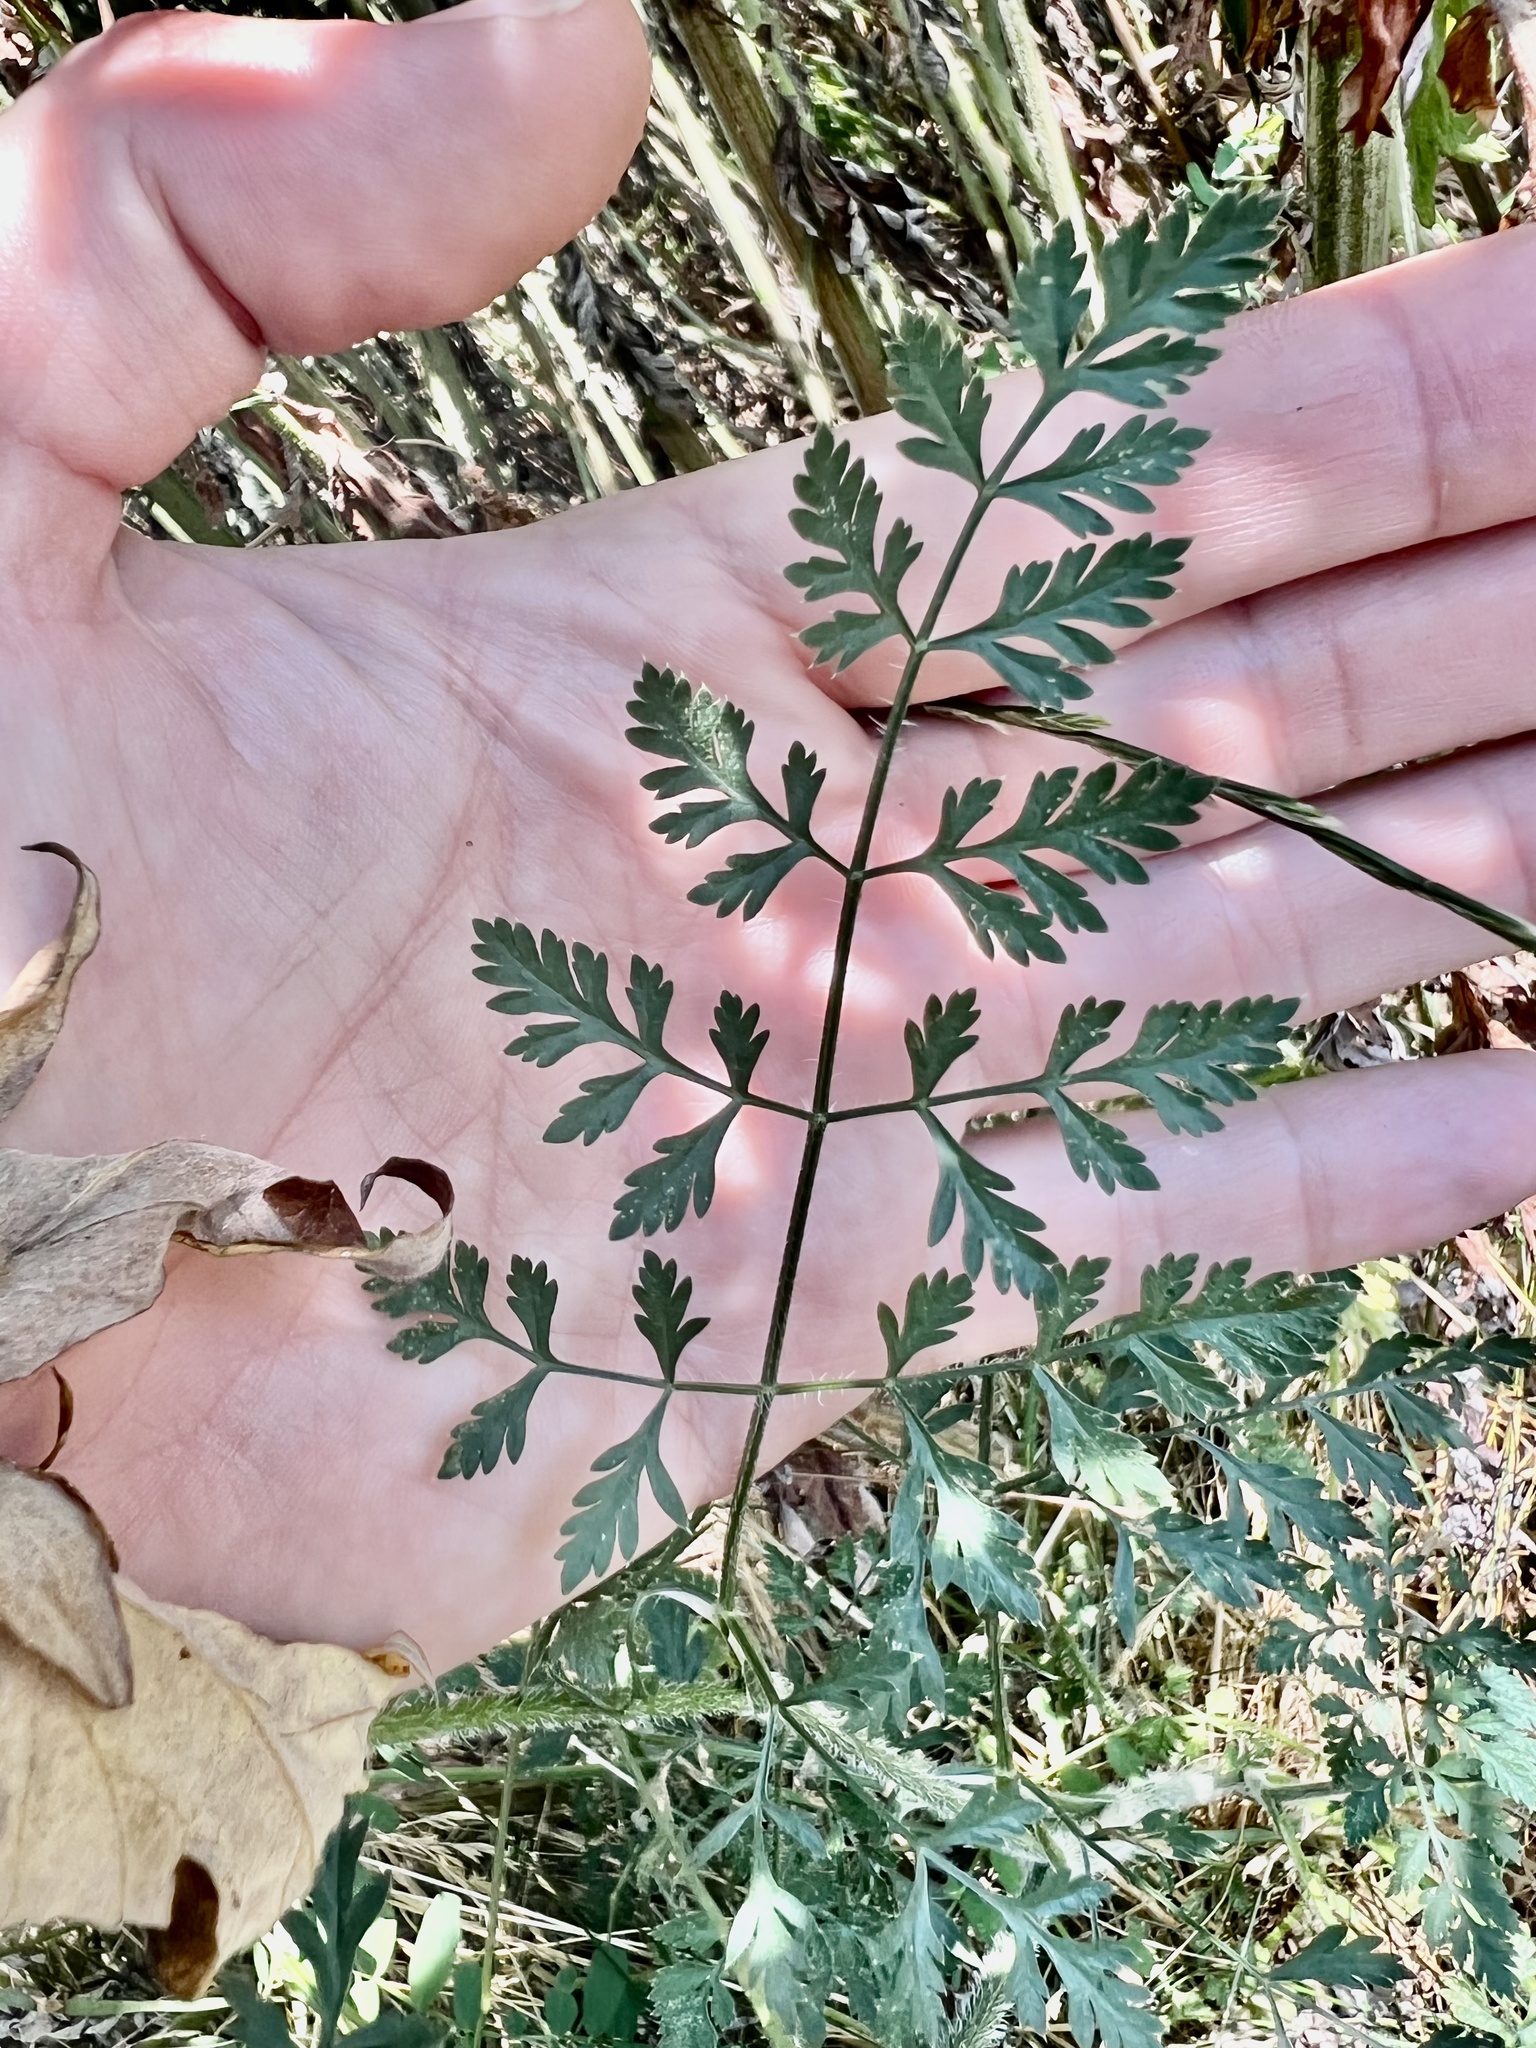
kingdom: Plantae
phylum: Tracheophyta
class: Magnoliopsida
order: Apiales
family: Apiaceae
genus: Daucus
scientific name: Daucus carota
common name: Wild carrot
